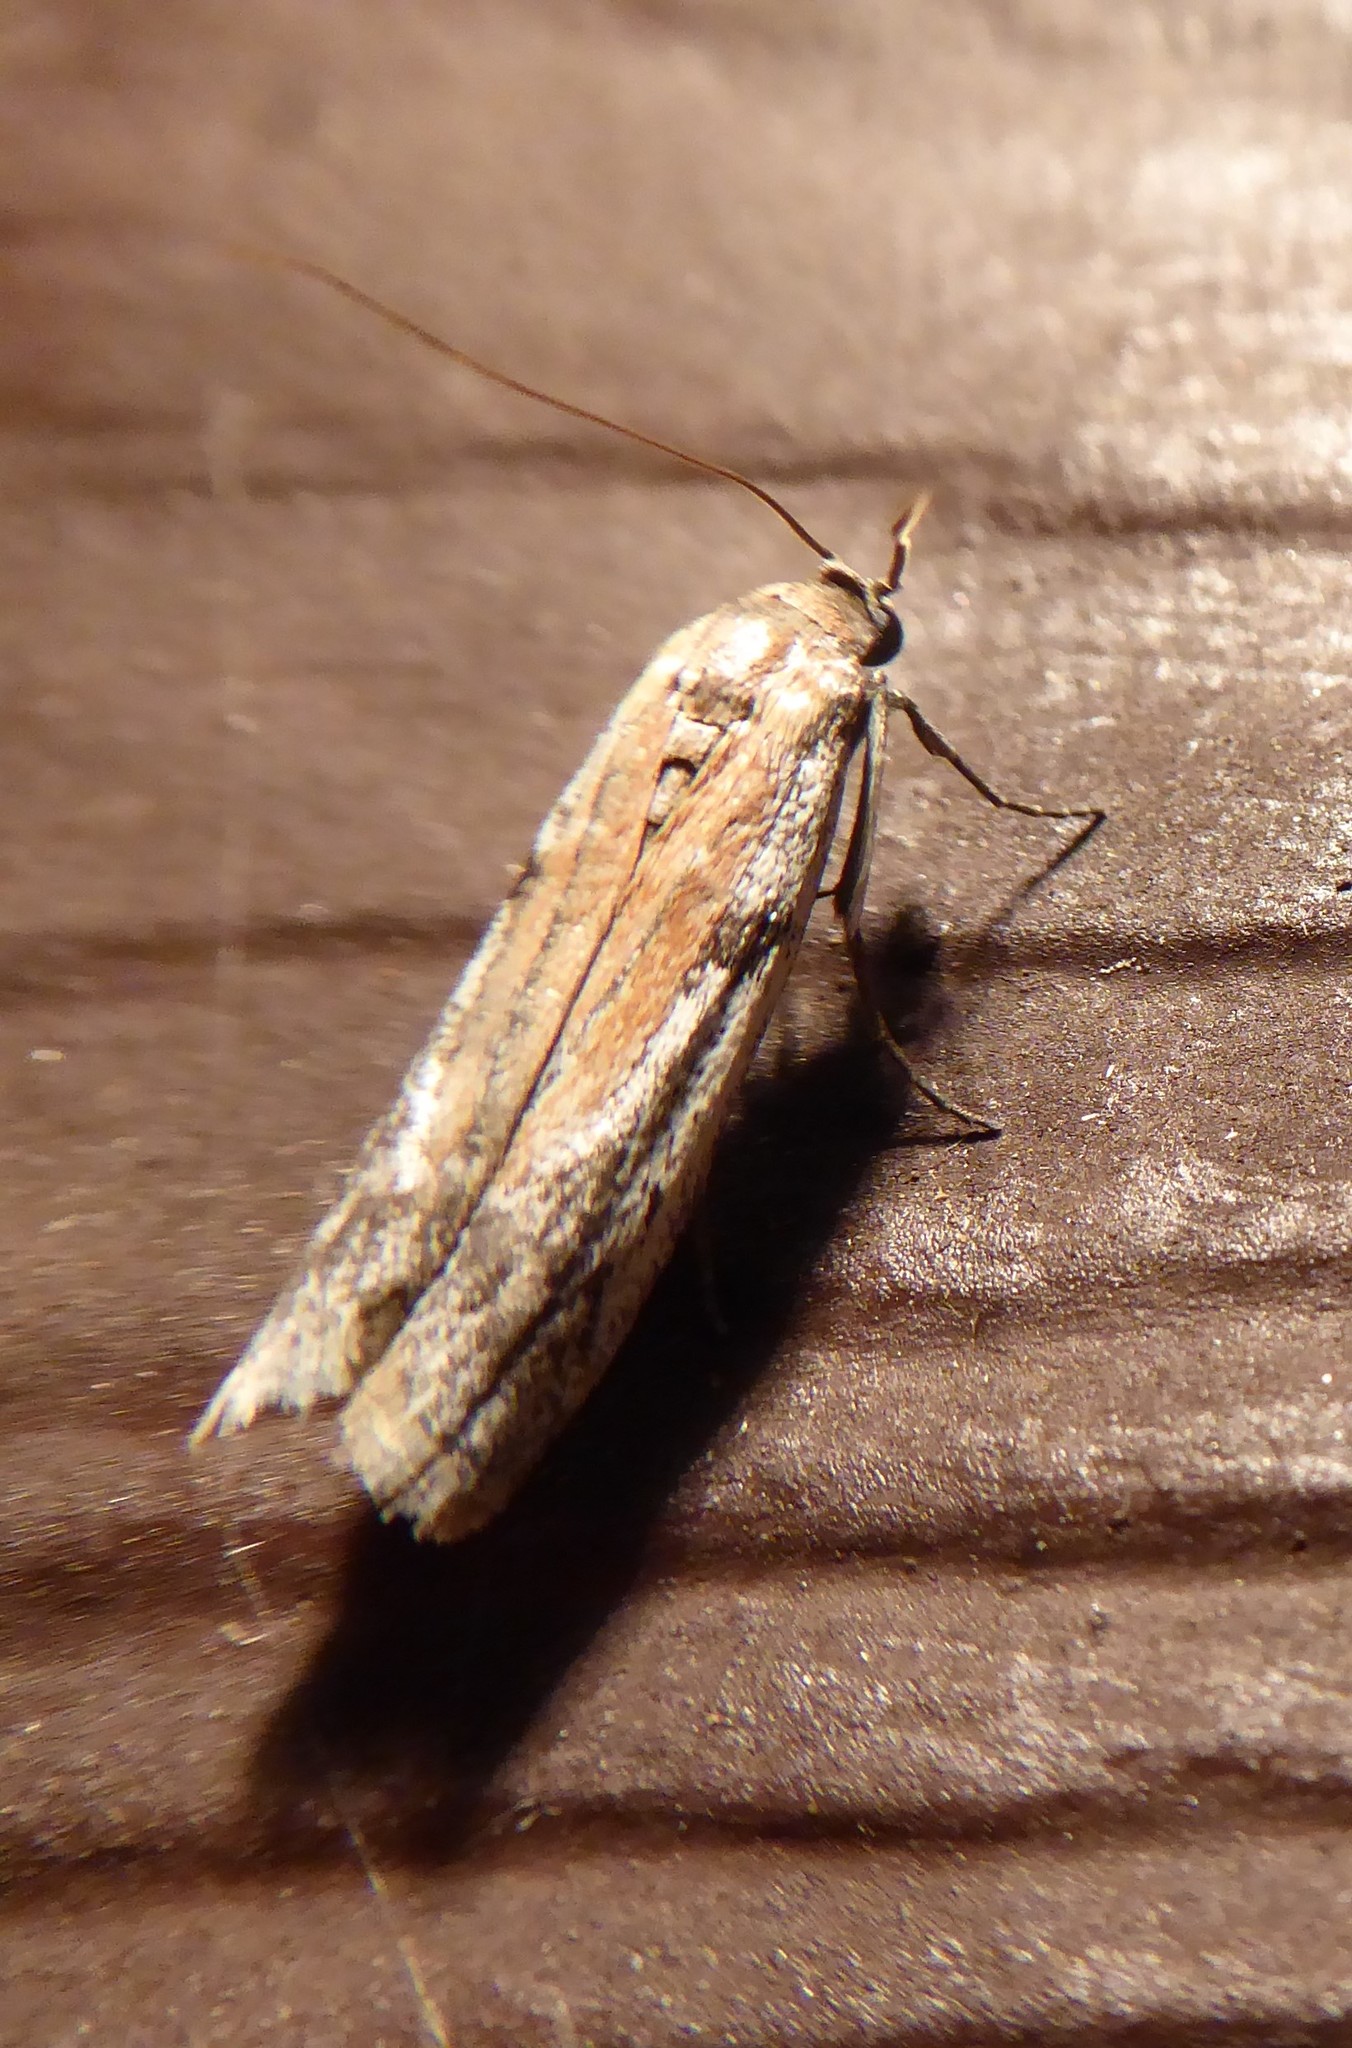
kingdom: Animalia
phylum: Arthropoda
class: Insecta
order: Lepidoptera
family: Pyralidae
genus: Patagoniodes
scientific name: Patagoniodes farinaria
